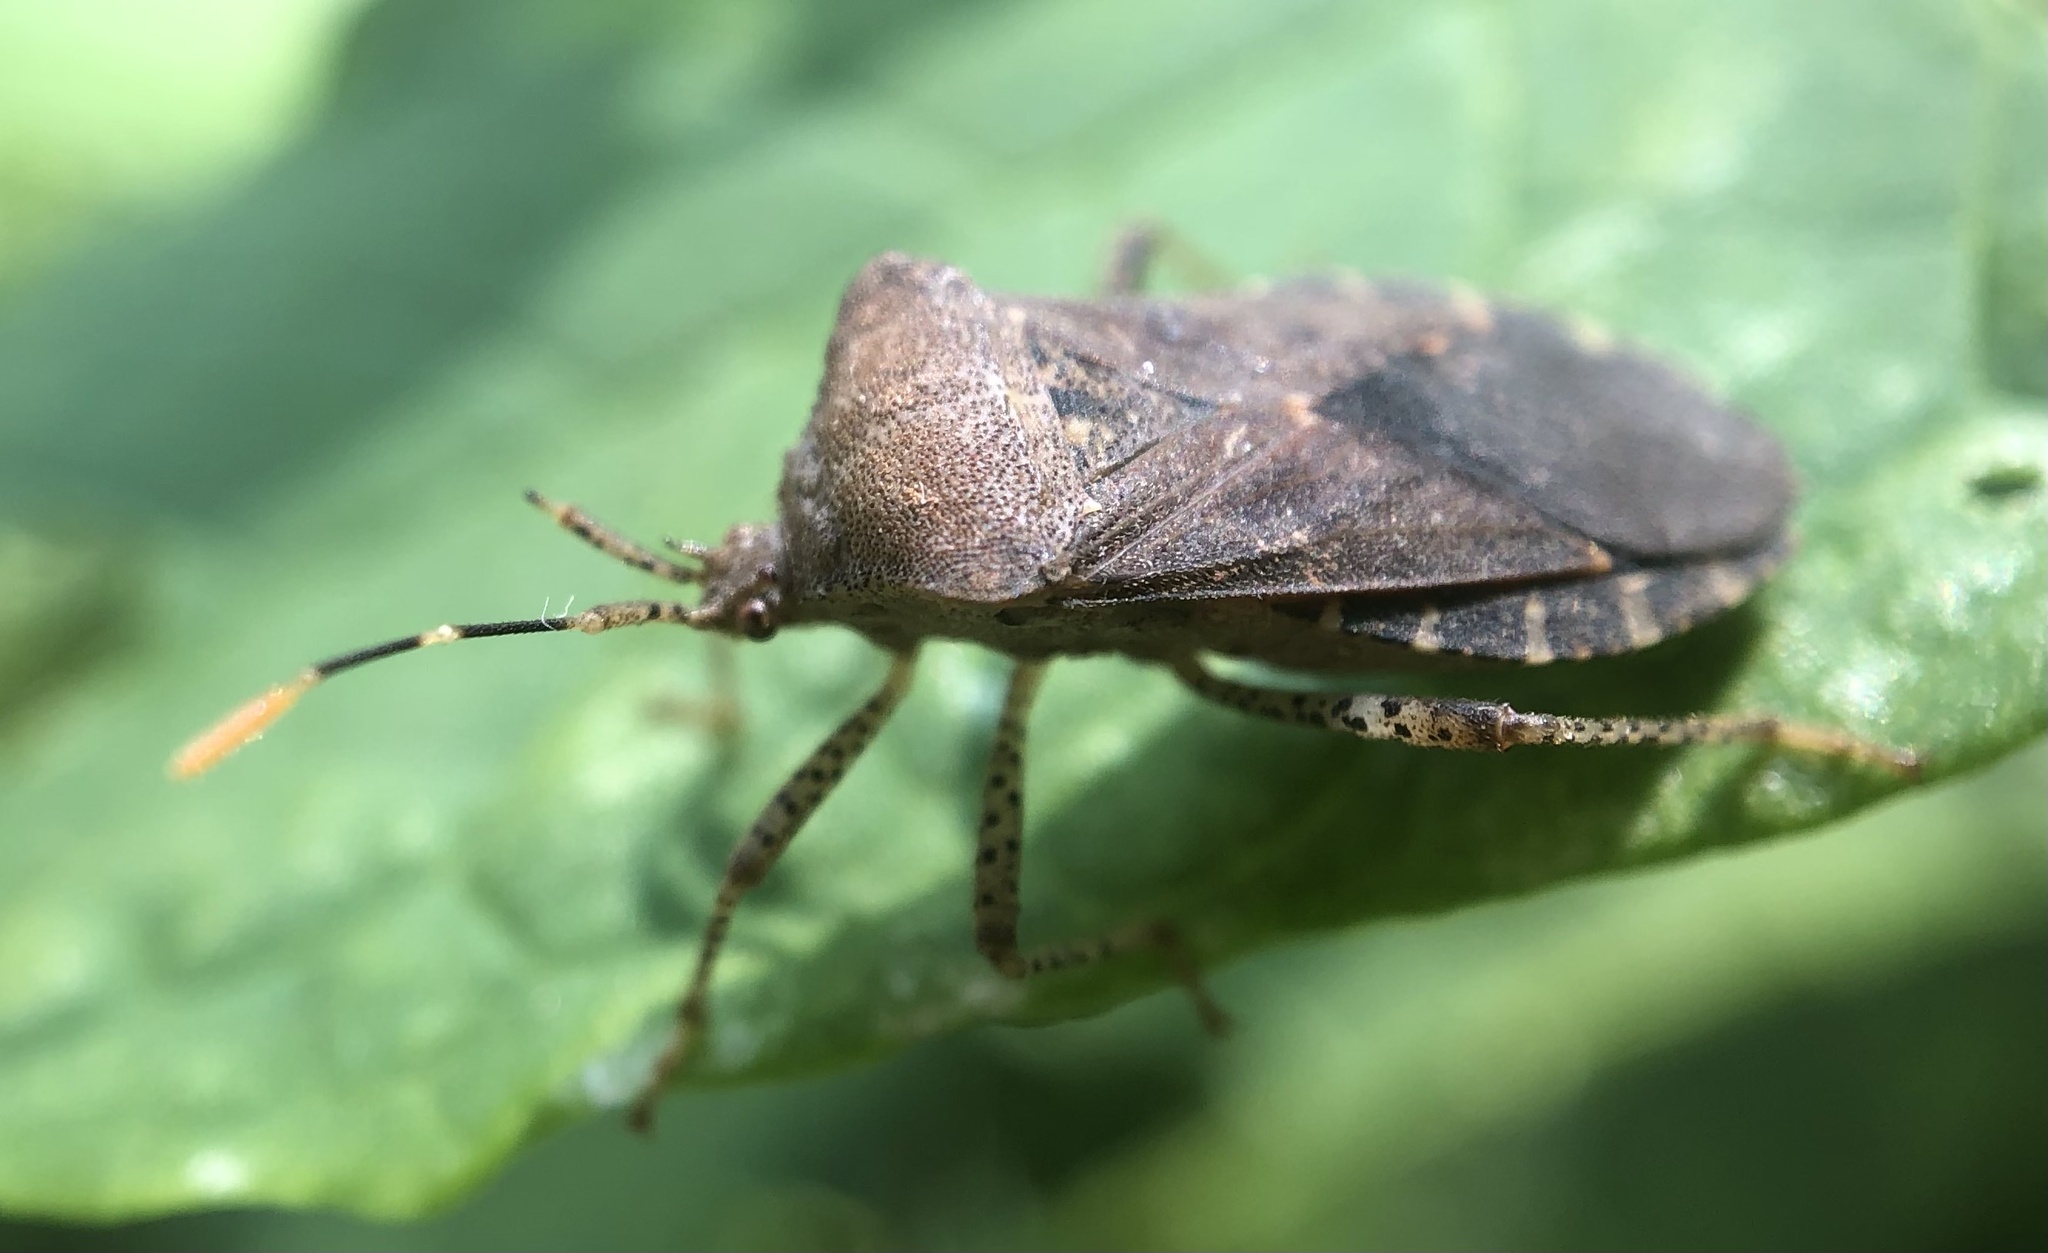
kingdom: Animalia
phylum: Arthropoda
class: Insecta
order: Hemiptera
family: Coreidae
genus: Anasa
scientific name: Anasa armigera
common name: Horned squash bug
